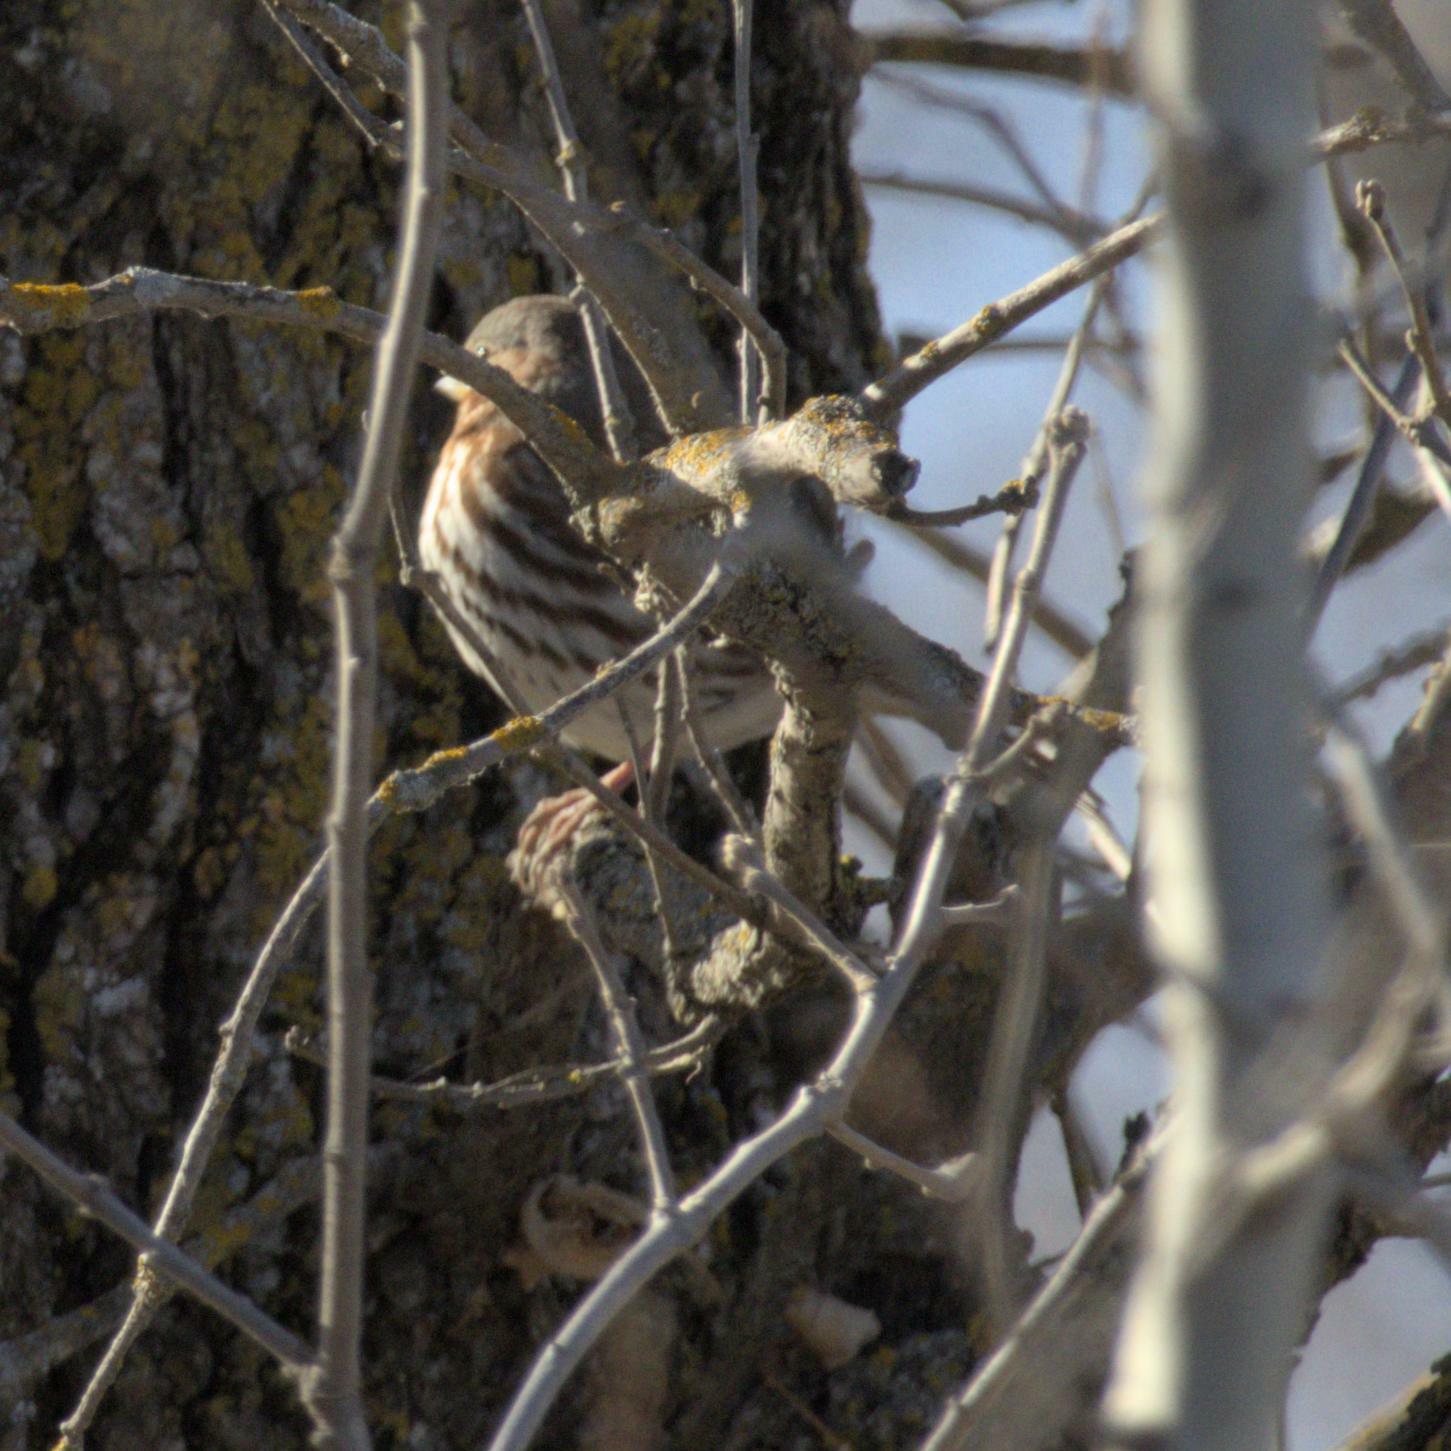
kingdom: Animalia
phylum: Chordata
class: Aves
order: Passeriformes
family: Passerellidae
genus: Passerella
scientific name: Passerella iliaca
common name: Fox sparrow
